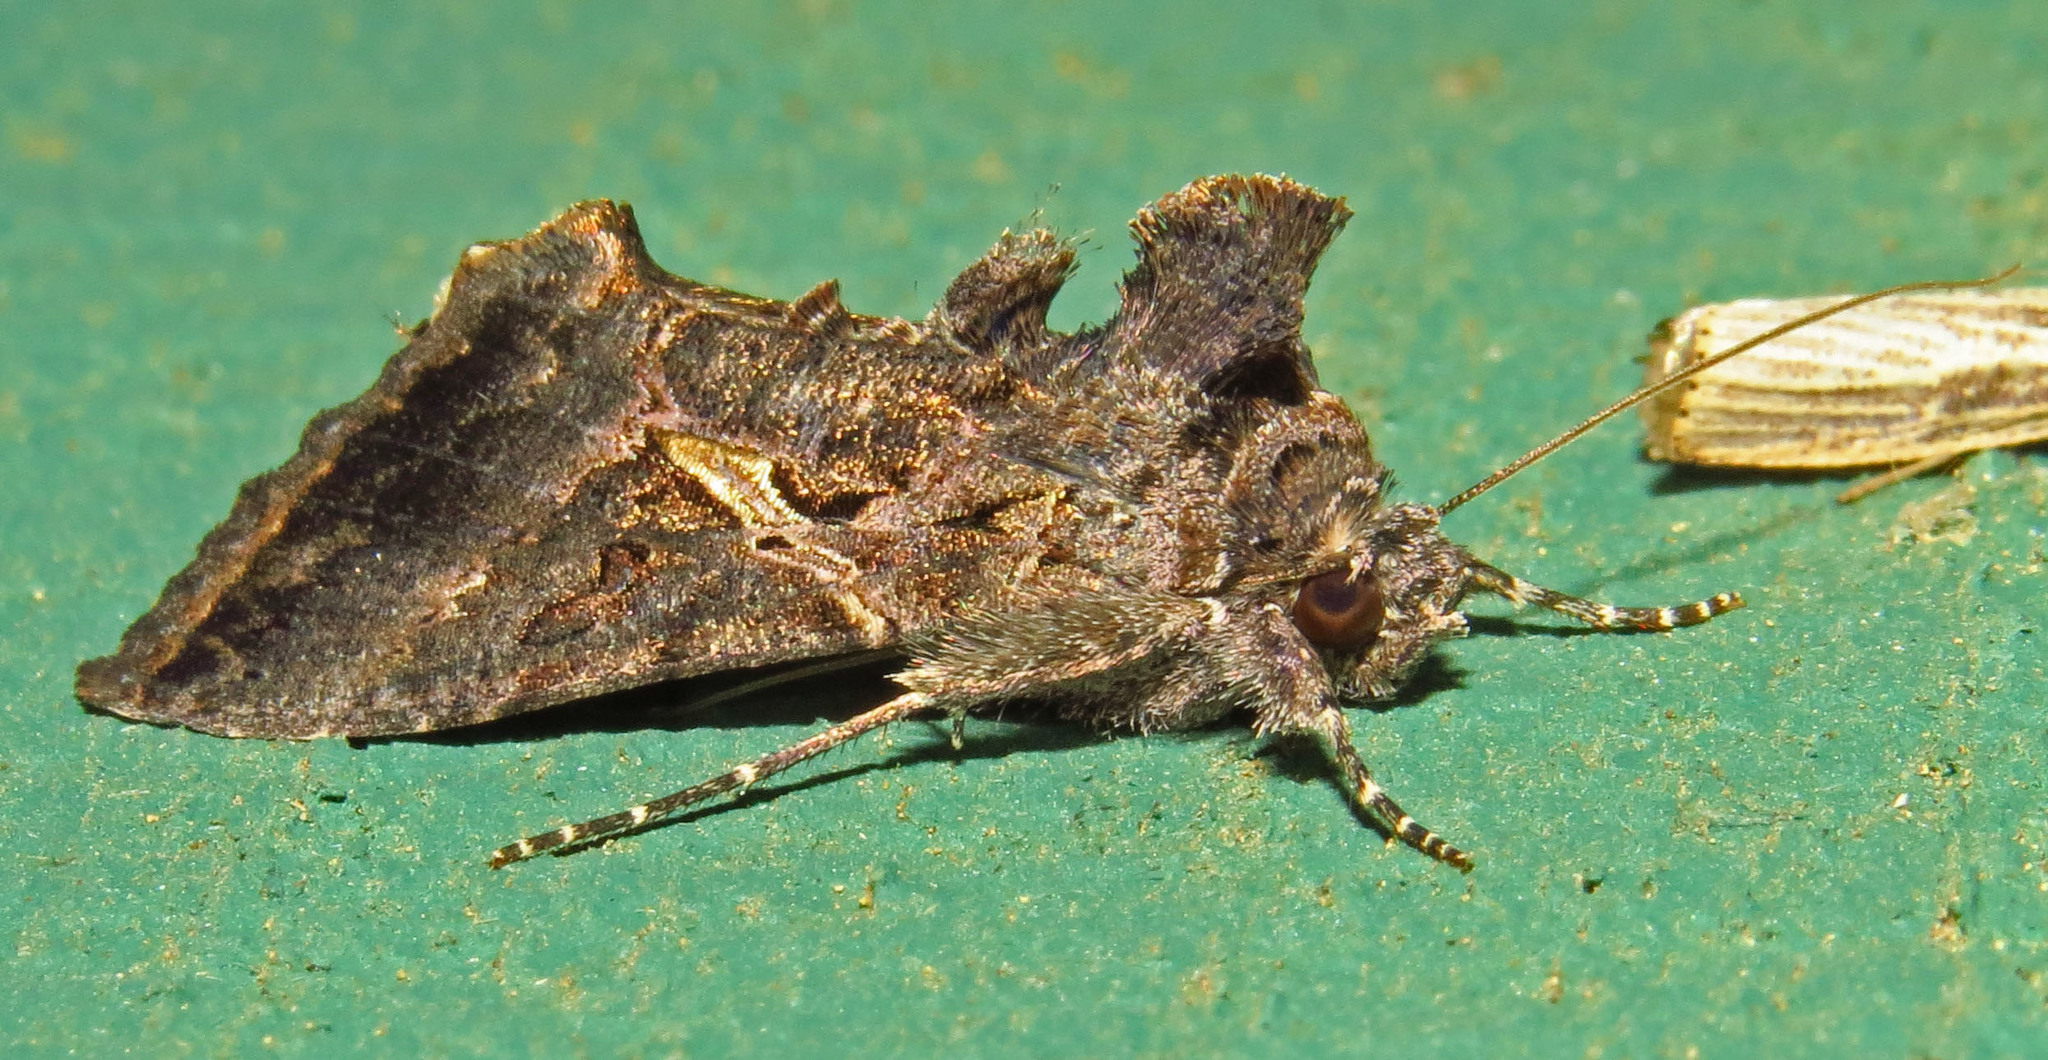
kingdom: Animalia
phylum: Arthropoda
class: Insecta
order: Lepidoptera
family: Noctuidae
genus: Ctenoplusia
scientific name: Ctenoplusia oxygramma
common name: Sharp-stigma looper moth
